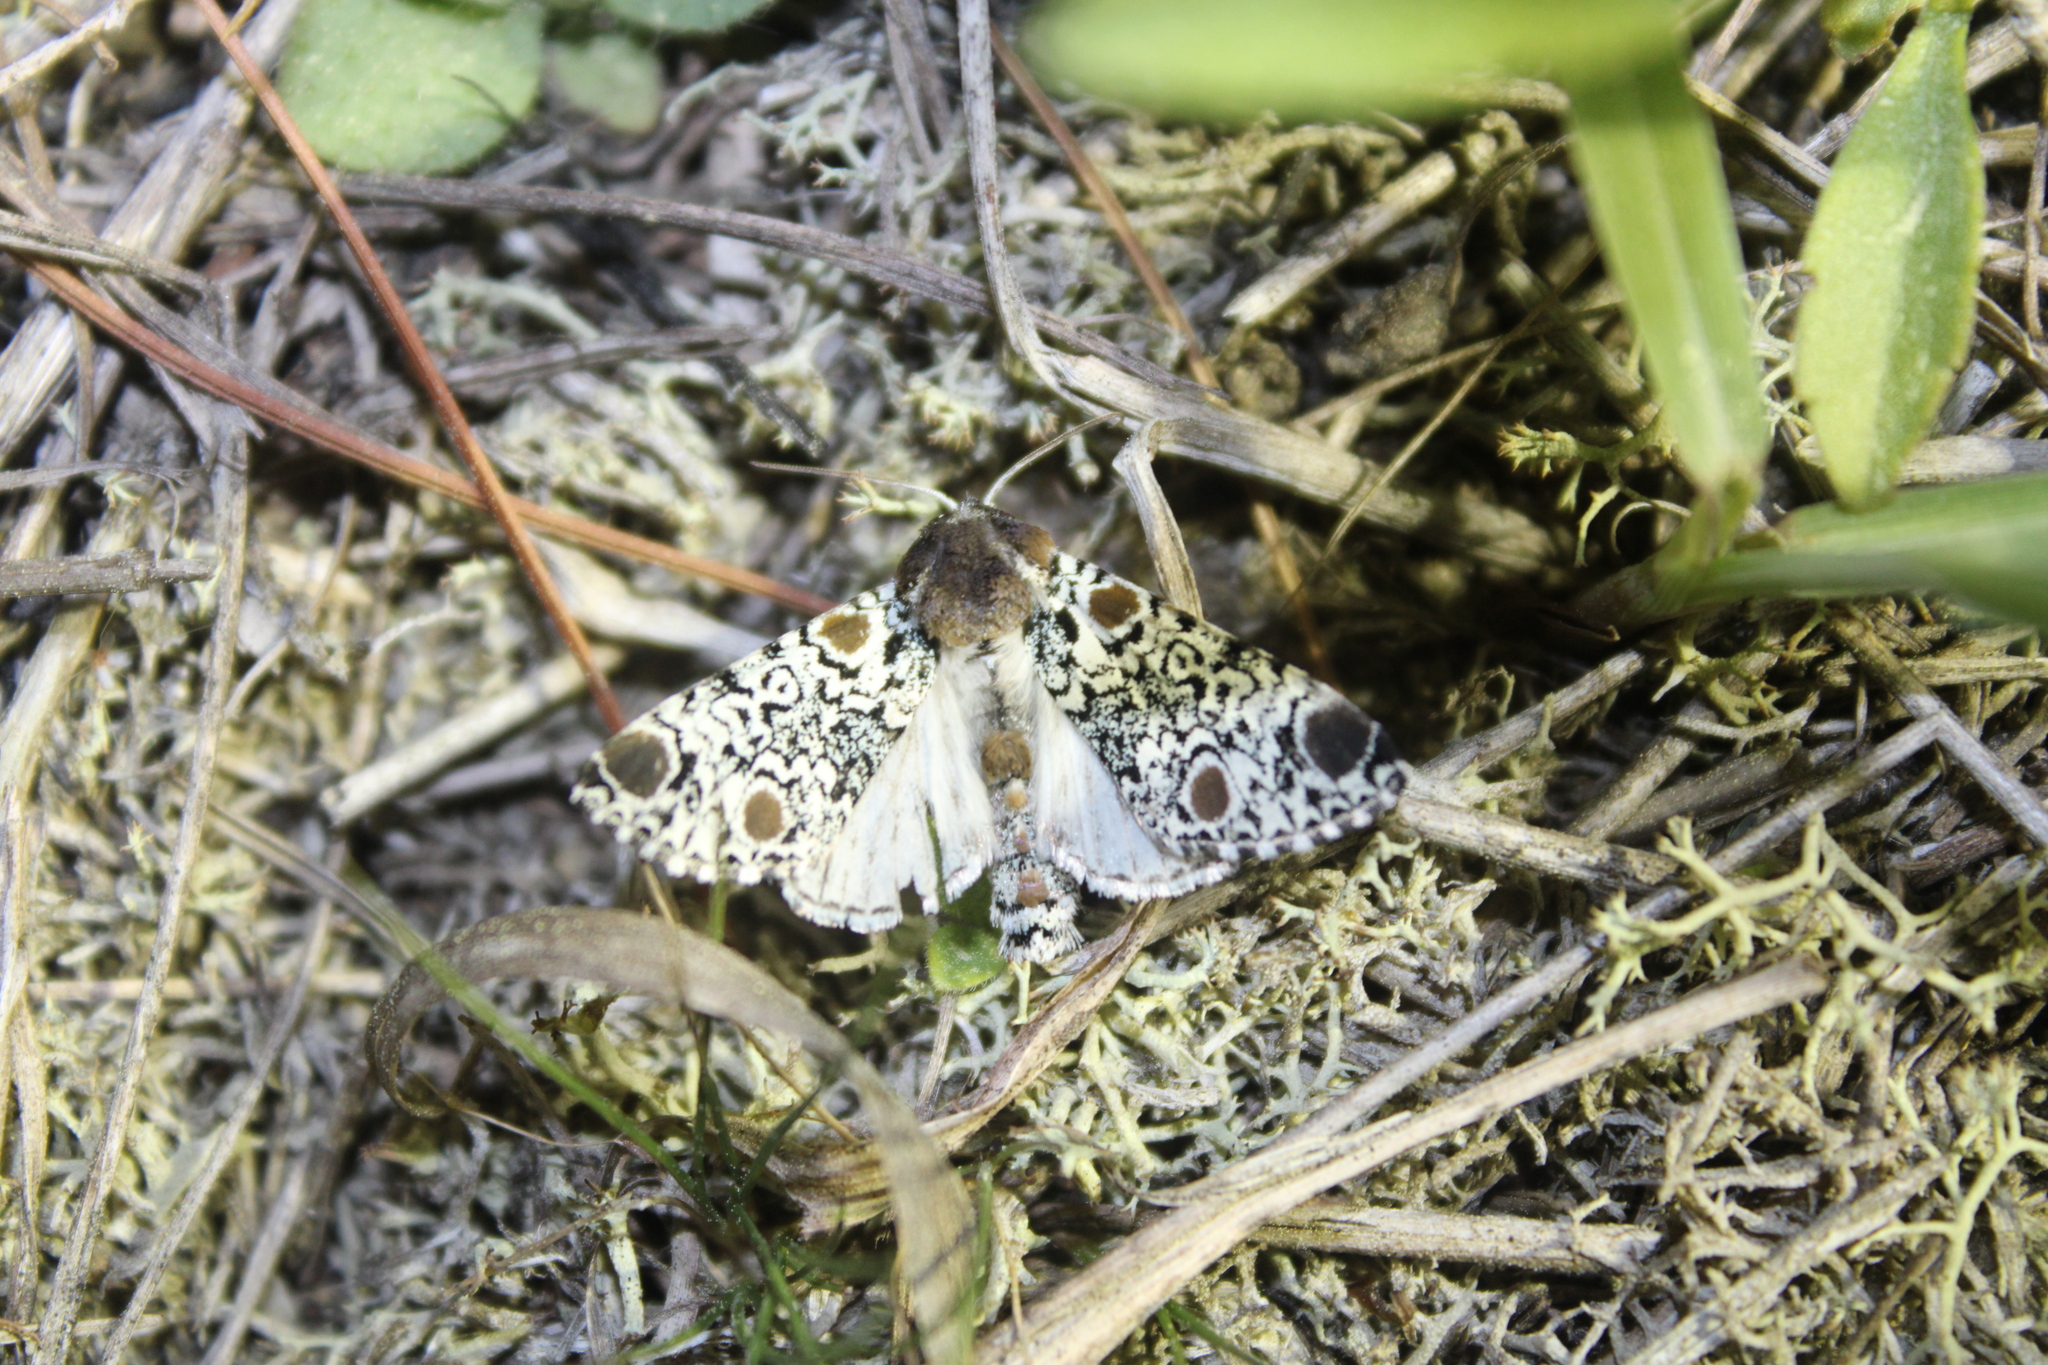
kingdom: Animalia
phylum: Arthropoda
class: Insecta
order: Lepidoptera
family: Noctuidae
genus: Harrisimemna
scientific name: Harrisimemna trisignata
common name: Harris threespot
